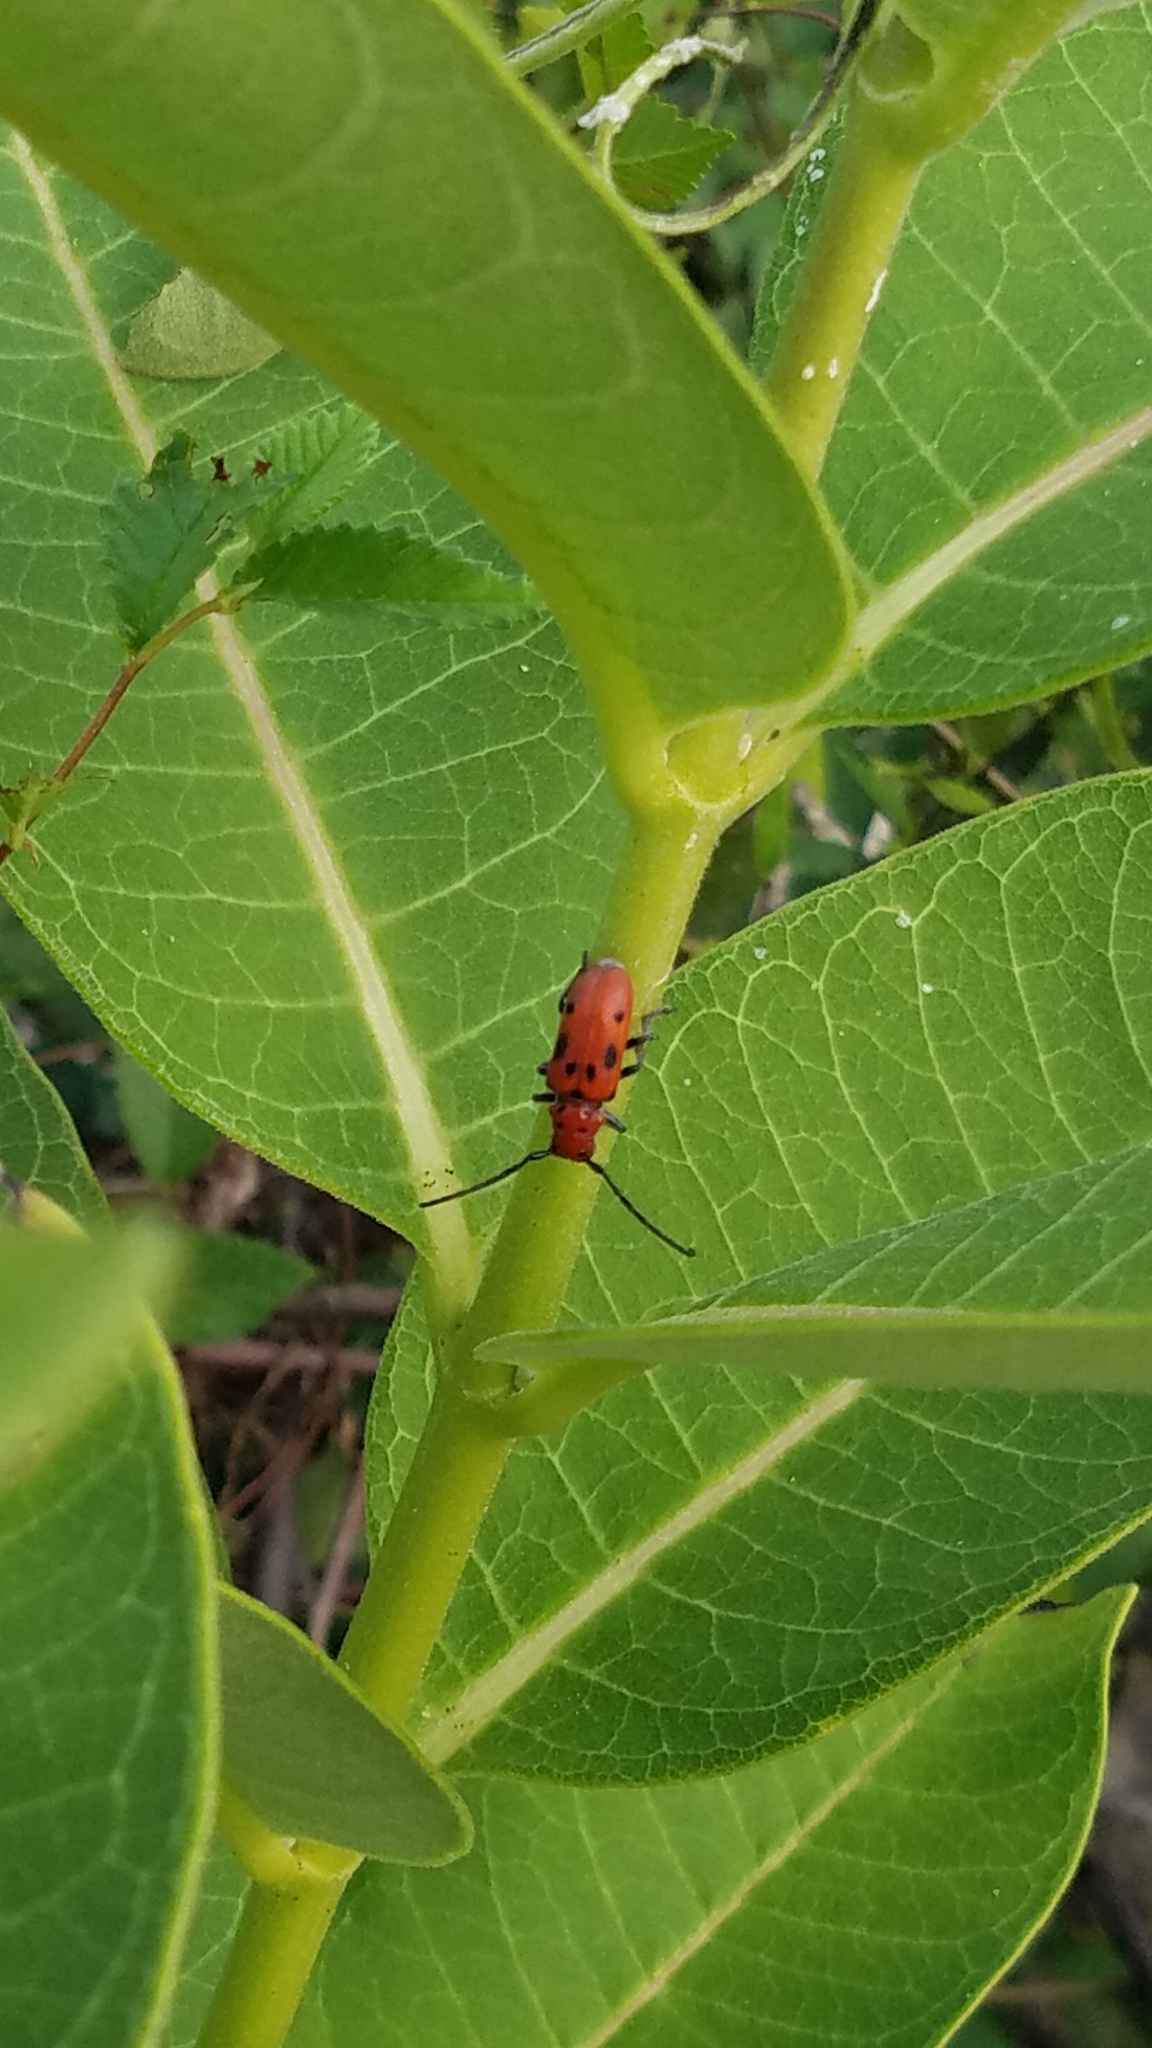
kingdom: Animalia
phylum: Arthropoda
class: Insecta
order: Coleoptera
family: Cerambycidae
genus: Tetraopes
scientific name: Tetraopes tetrophthalmus
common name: Red milkweed beetle
